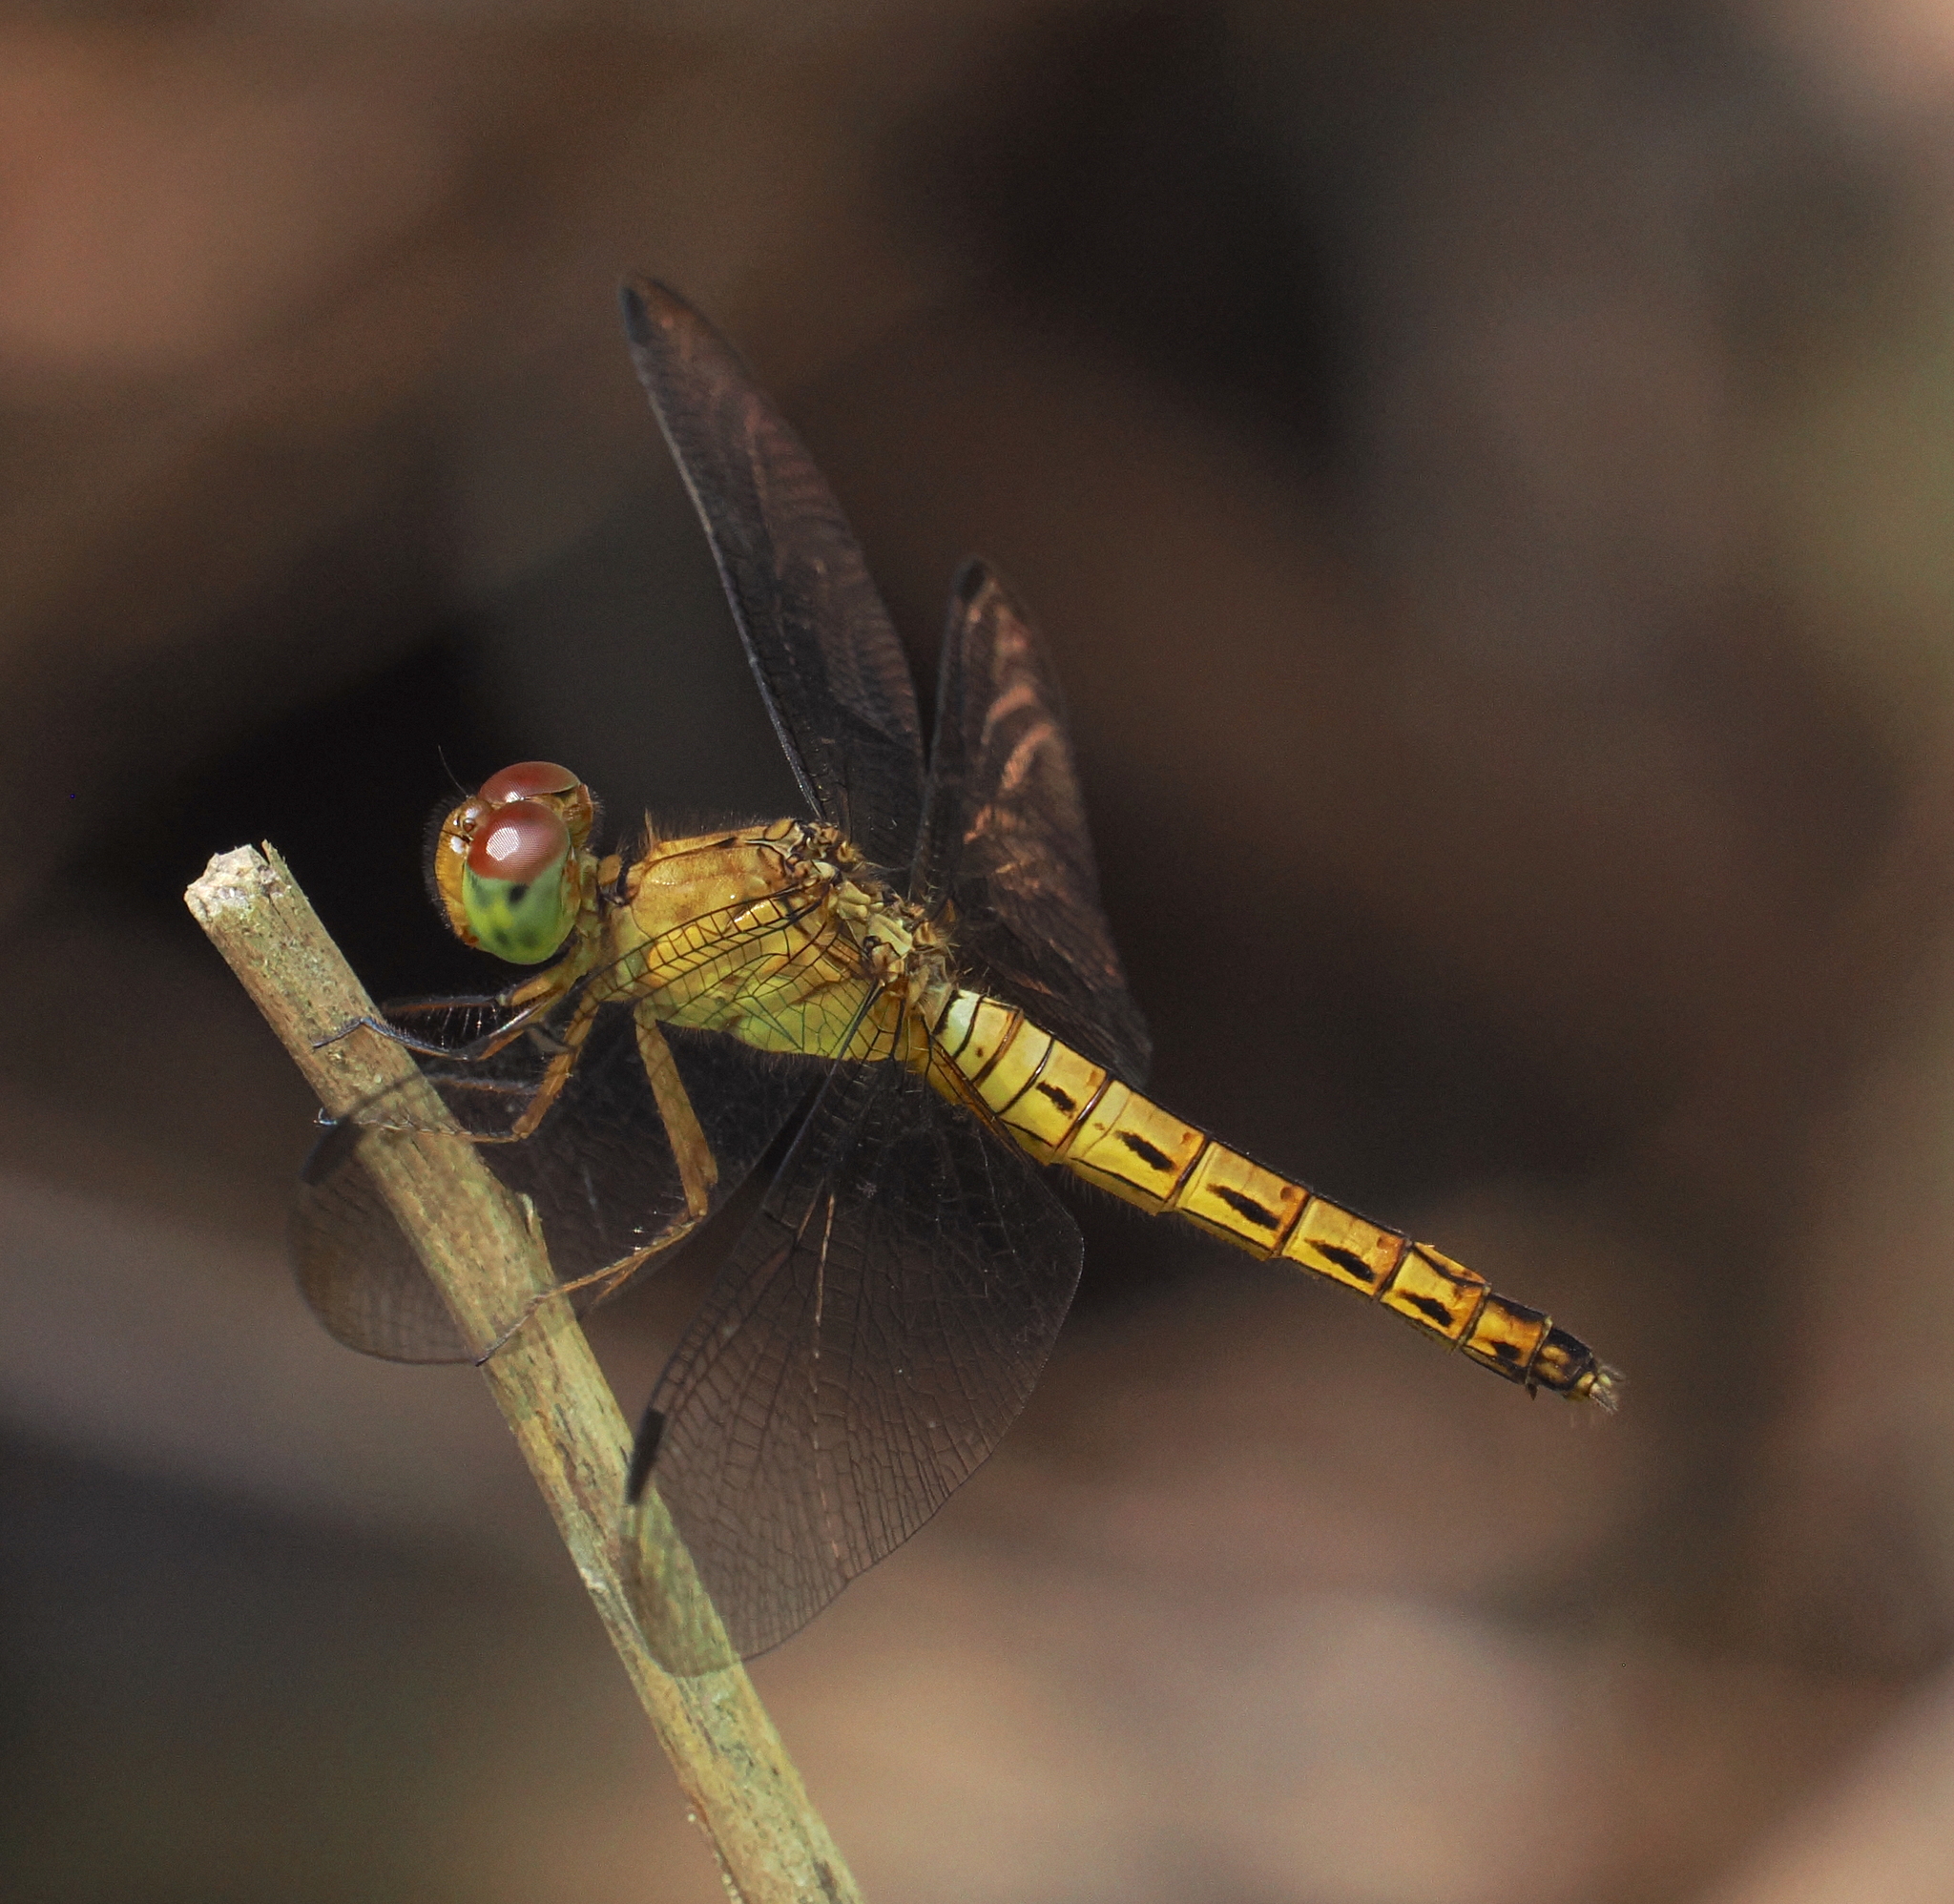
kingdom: Animalia
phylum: Arthropoda
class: Insecta
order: Odonata
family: Libellulidae
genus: Neurothemis
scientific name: Neurothemis fluctuans
